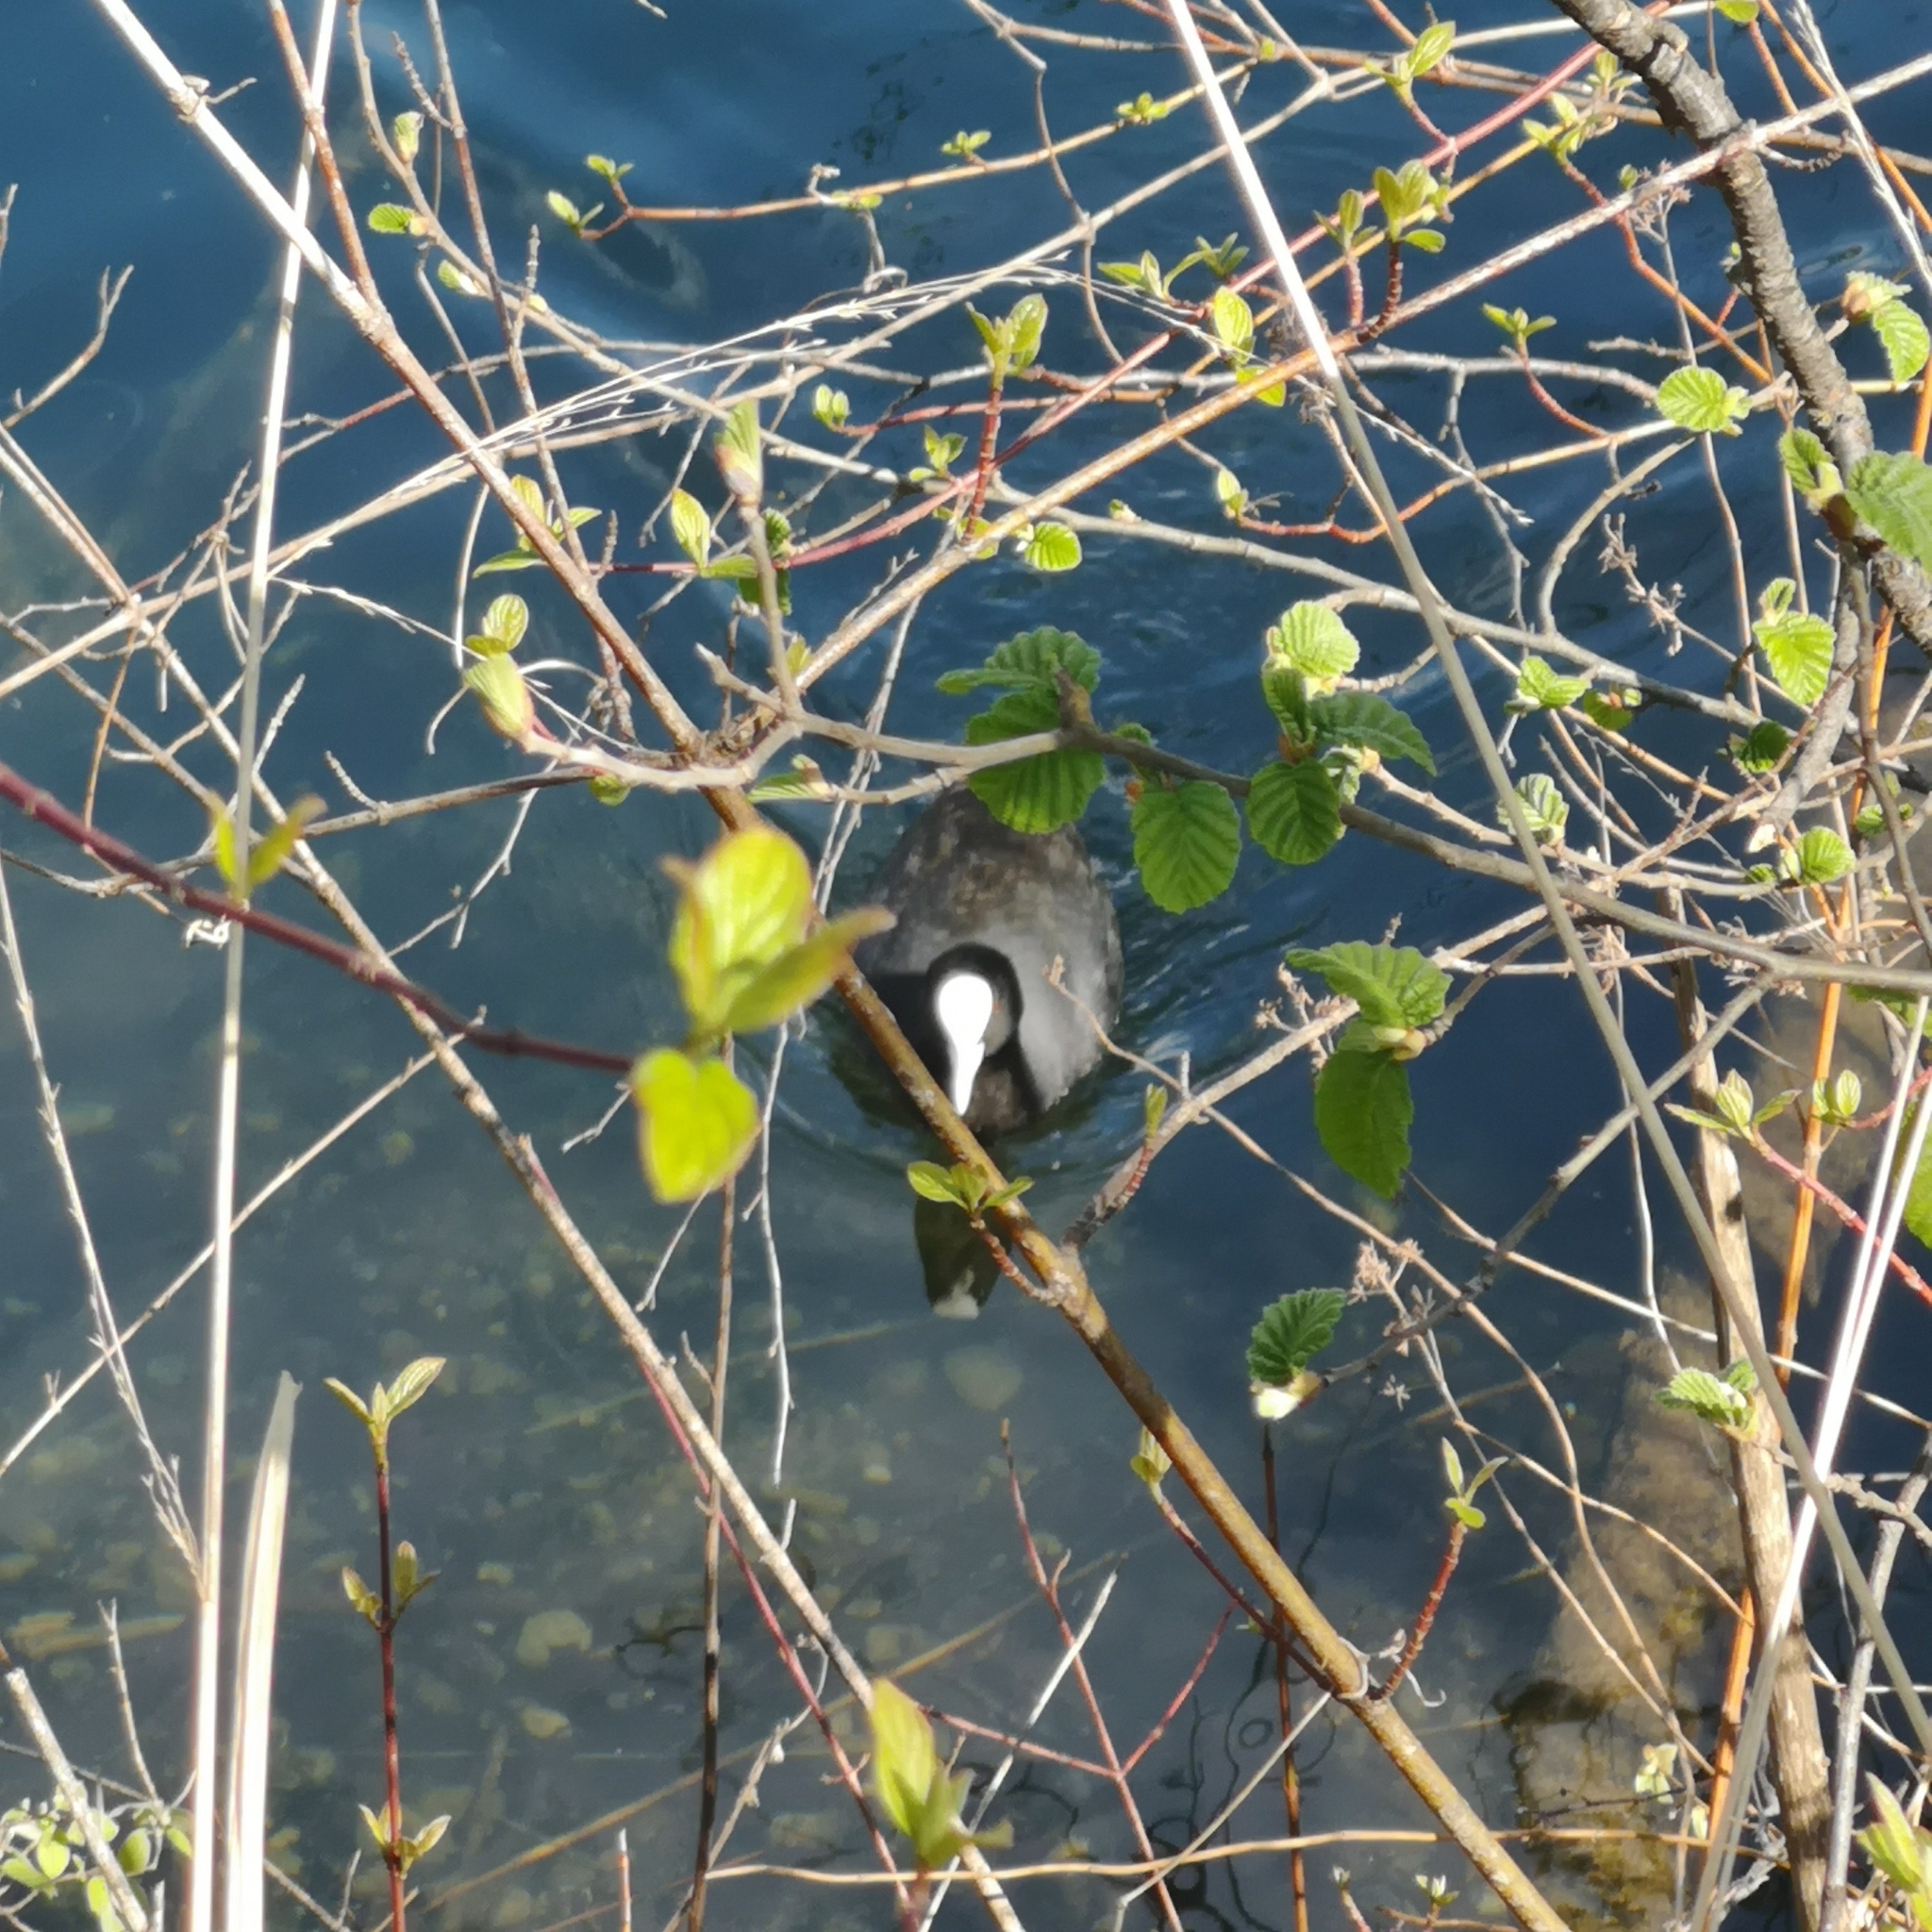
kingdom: Animalia
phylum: Chordata
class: Aves
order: Gruiformes
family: Rallidae
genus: Fulica
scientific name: Fulica atra
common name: Eurasian coot
